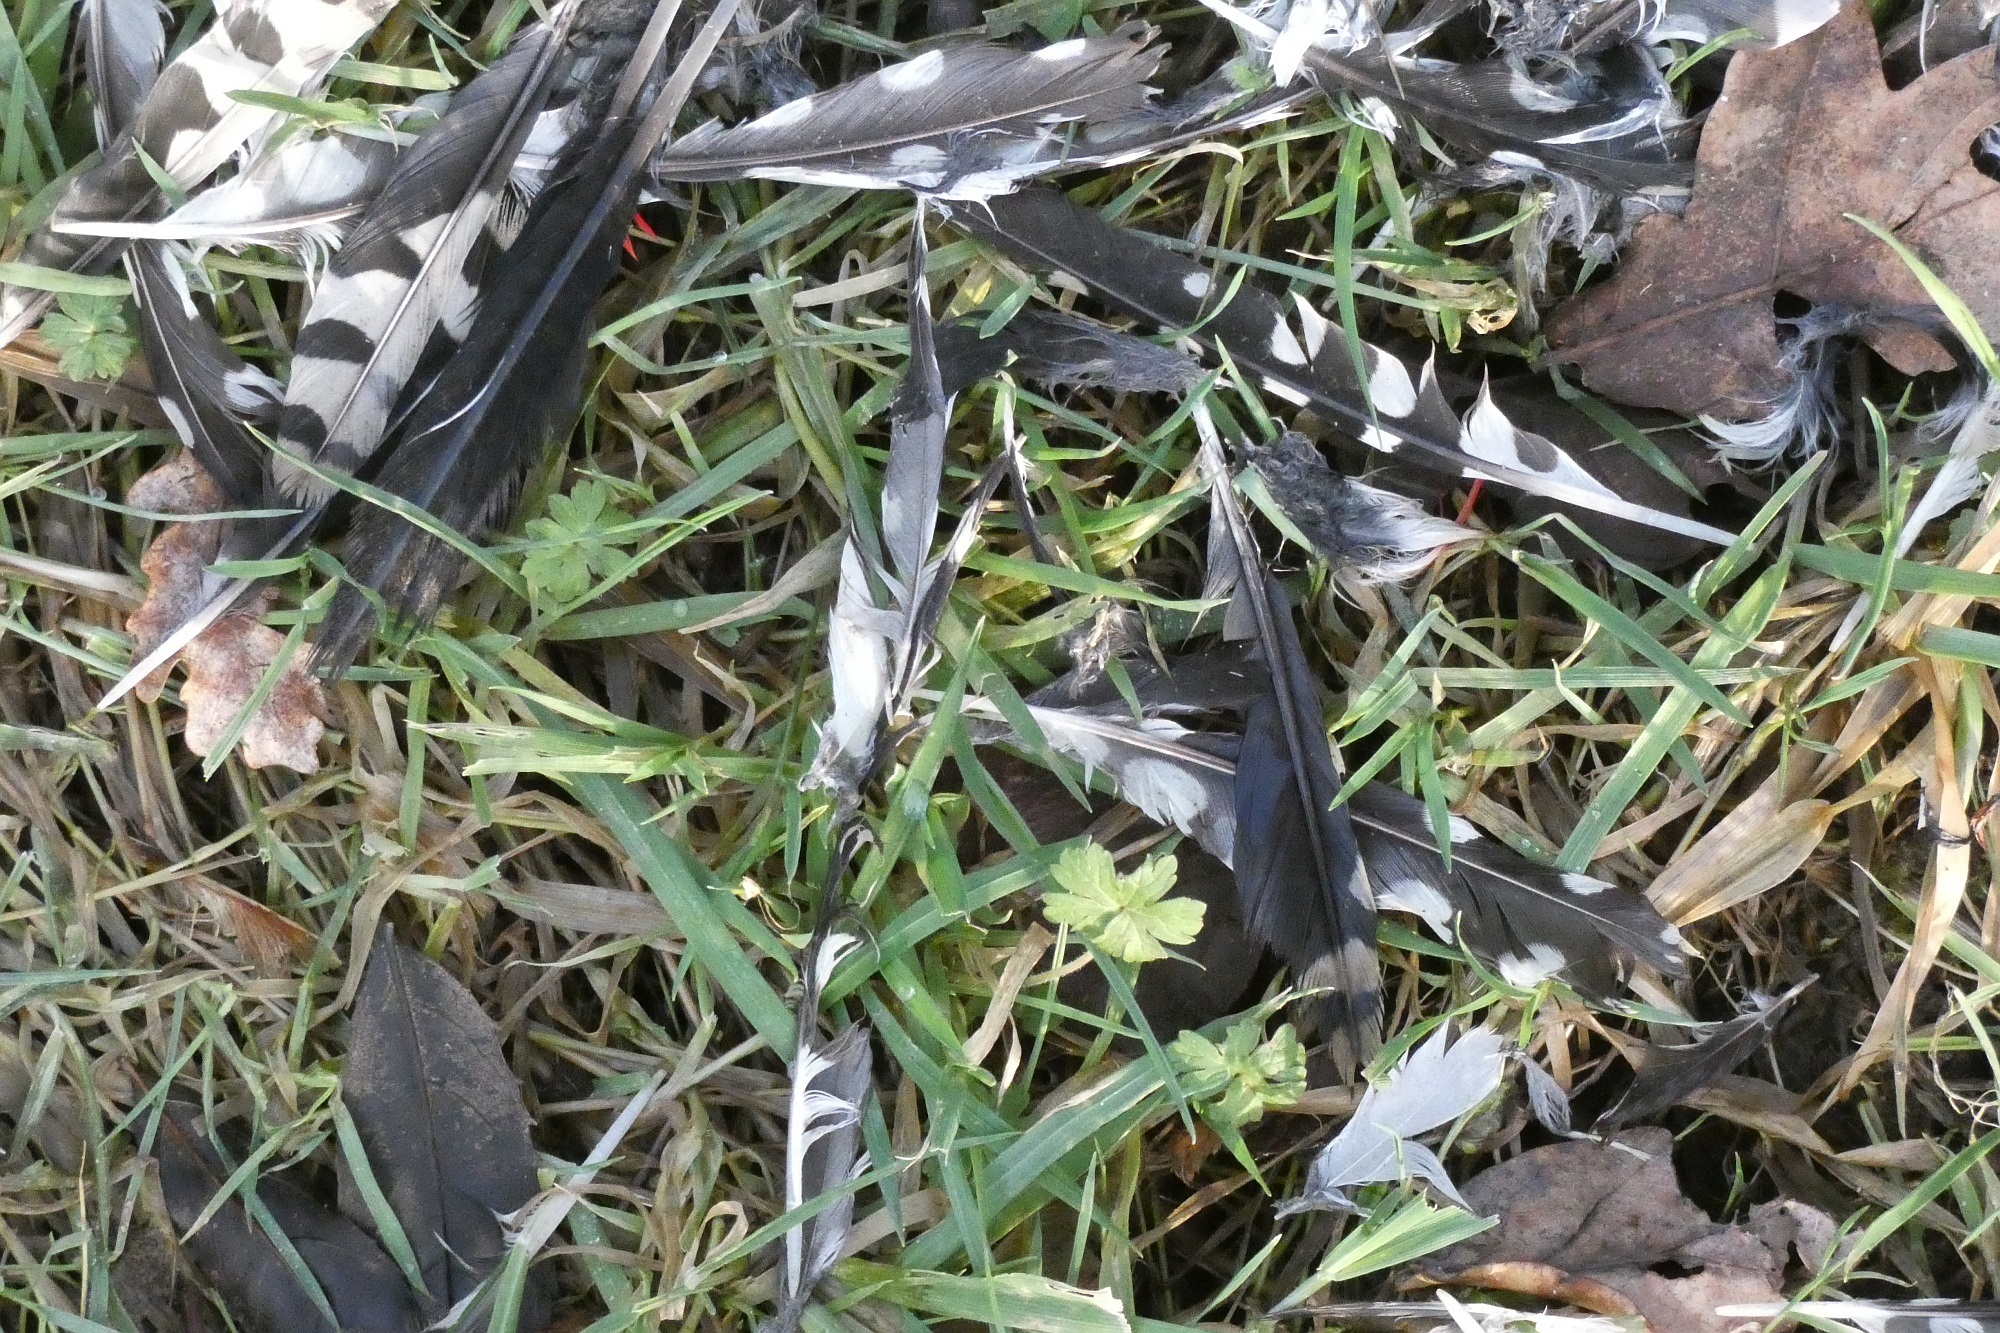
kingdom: Animalia
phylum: Chordata
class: Aves
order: Piciformes
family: Picidae
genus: Dendrocopos
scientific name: Dendrocopos major
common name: Great spotted woodpecker
